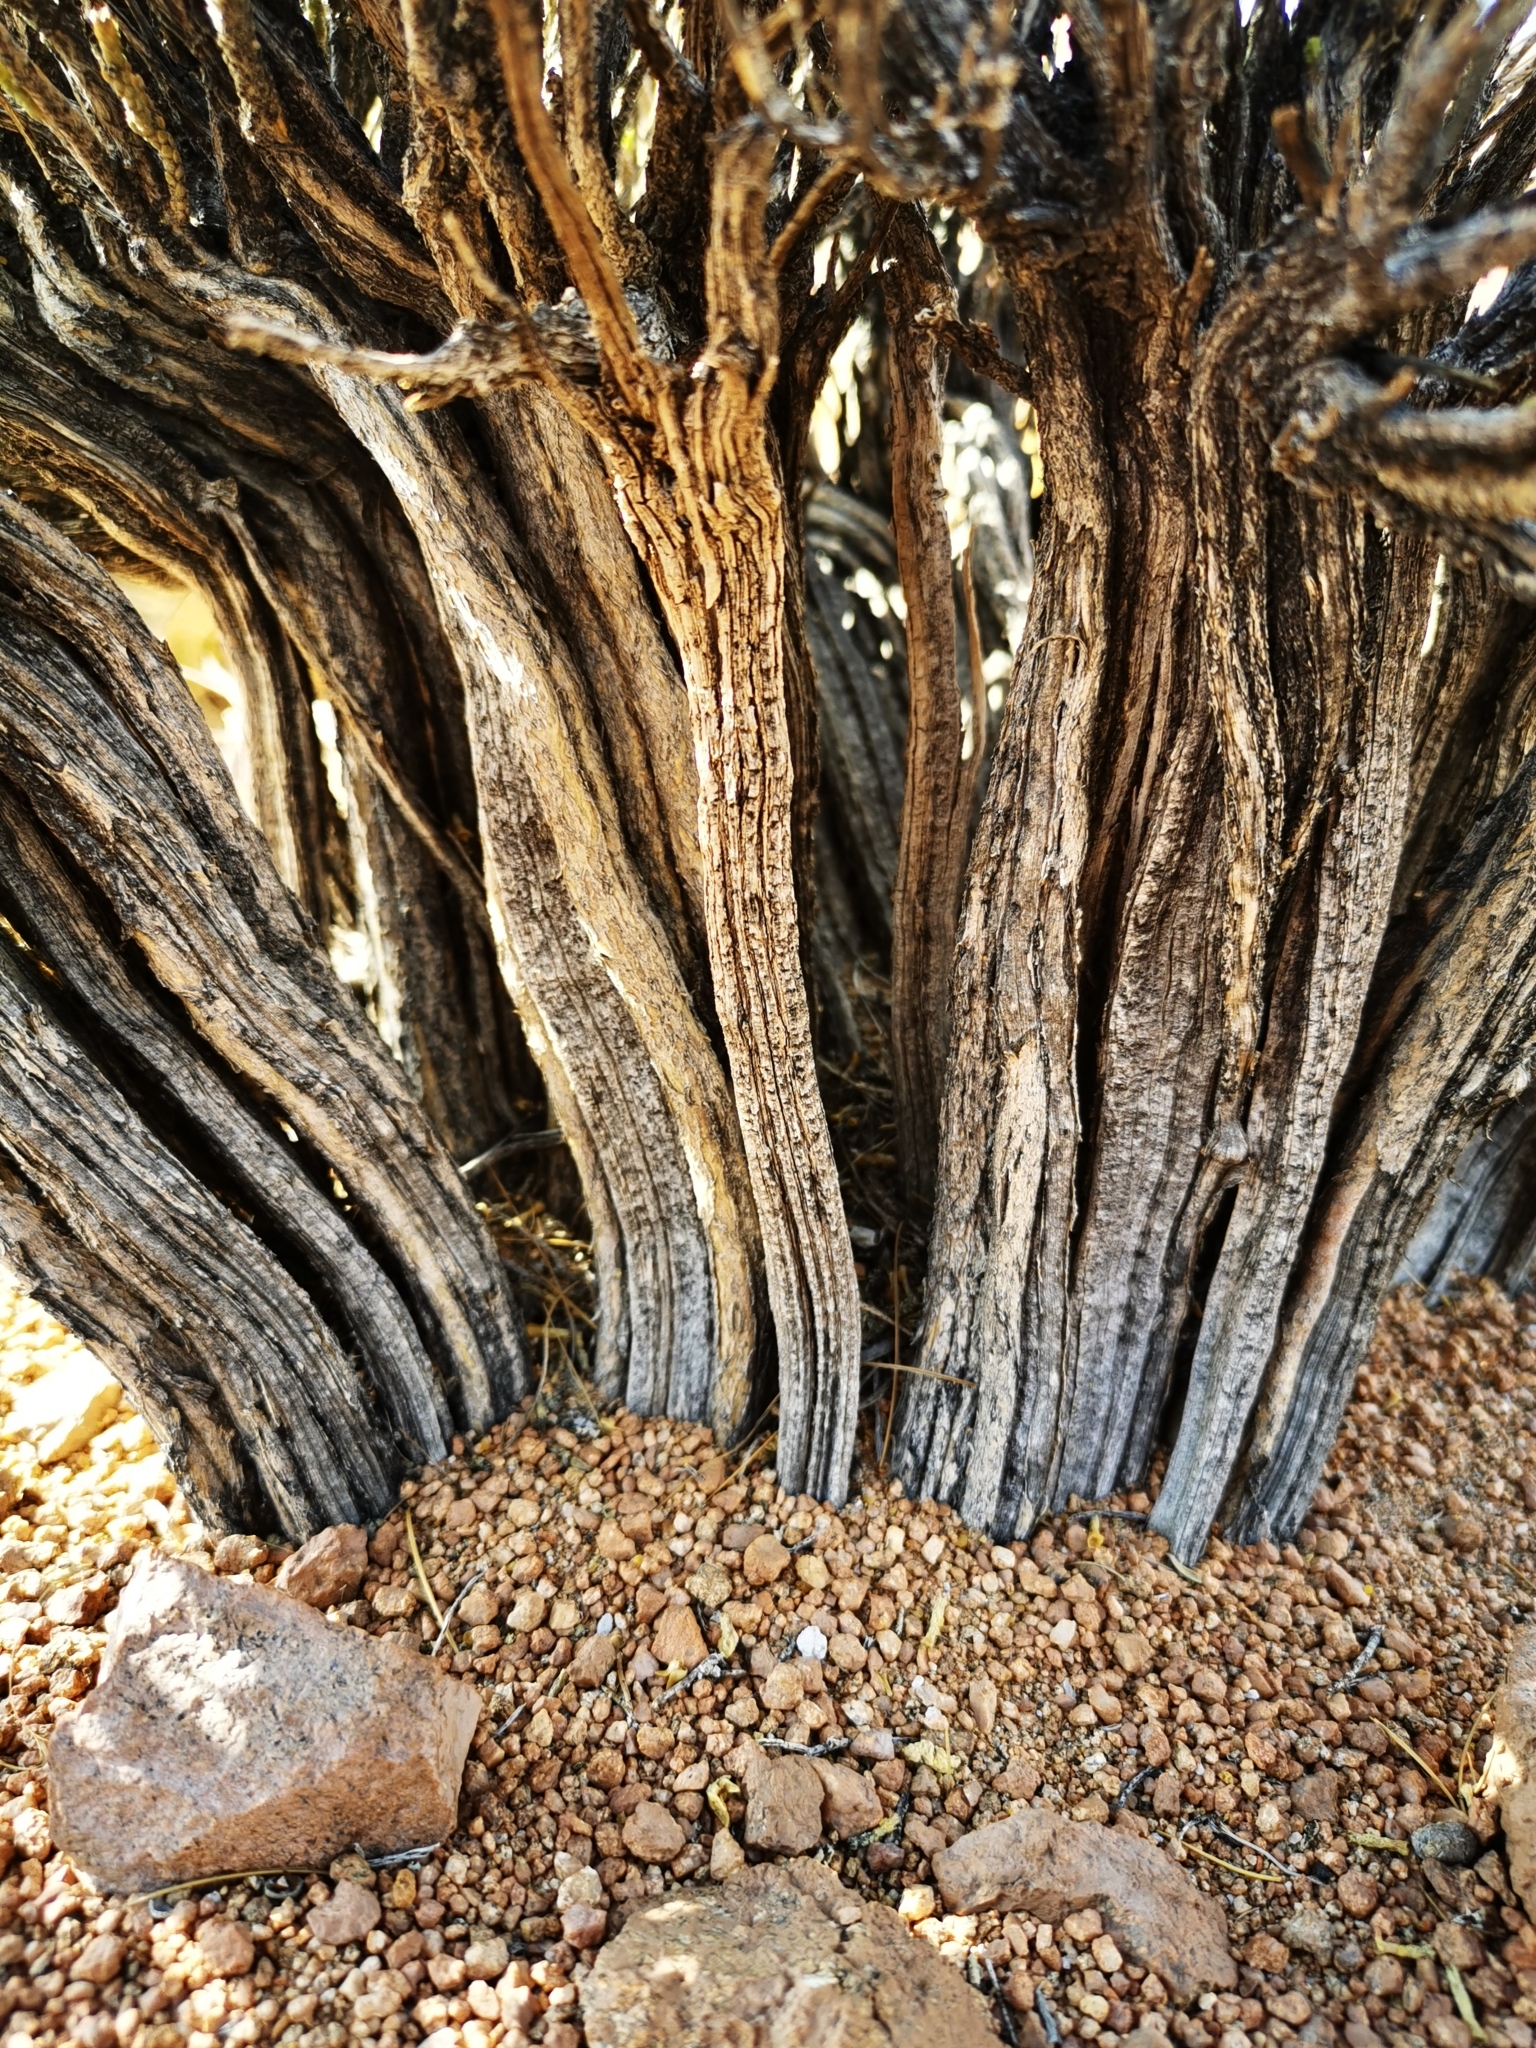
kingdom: Plantae
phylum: Tracheophyta
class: Magnoliopsida
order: Solanales
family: Solanaceae
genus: Fabiana
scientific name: Fabiana squamata
